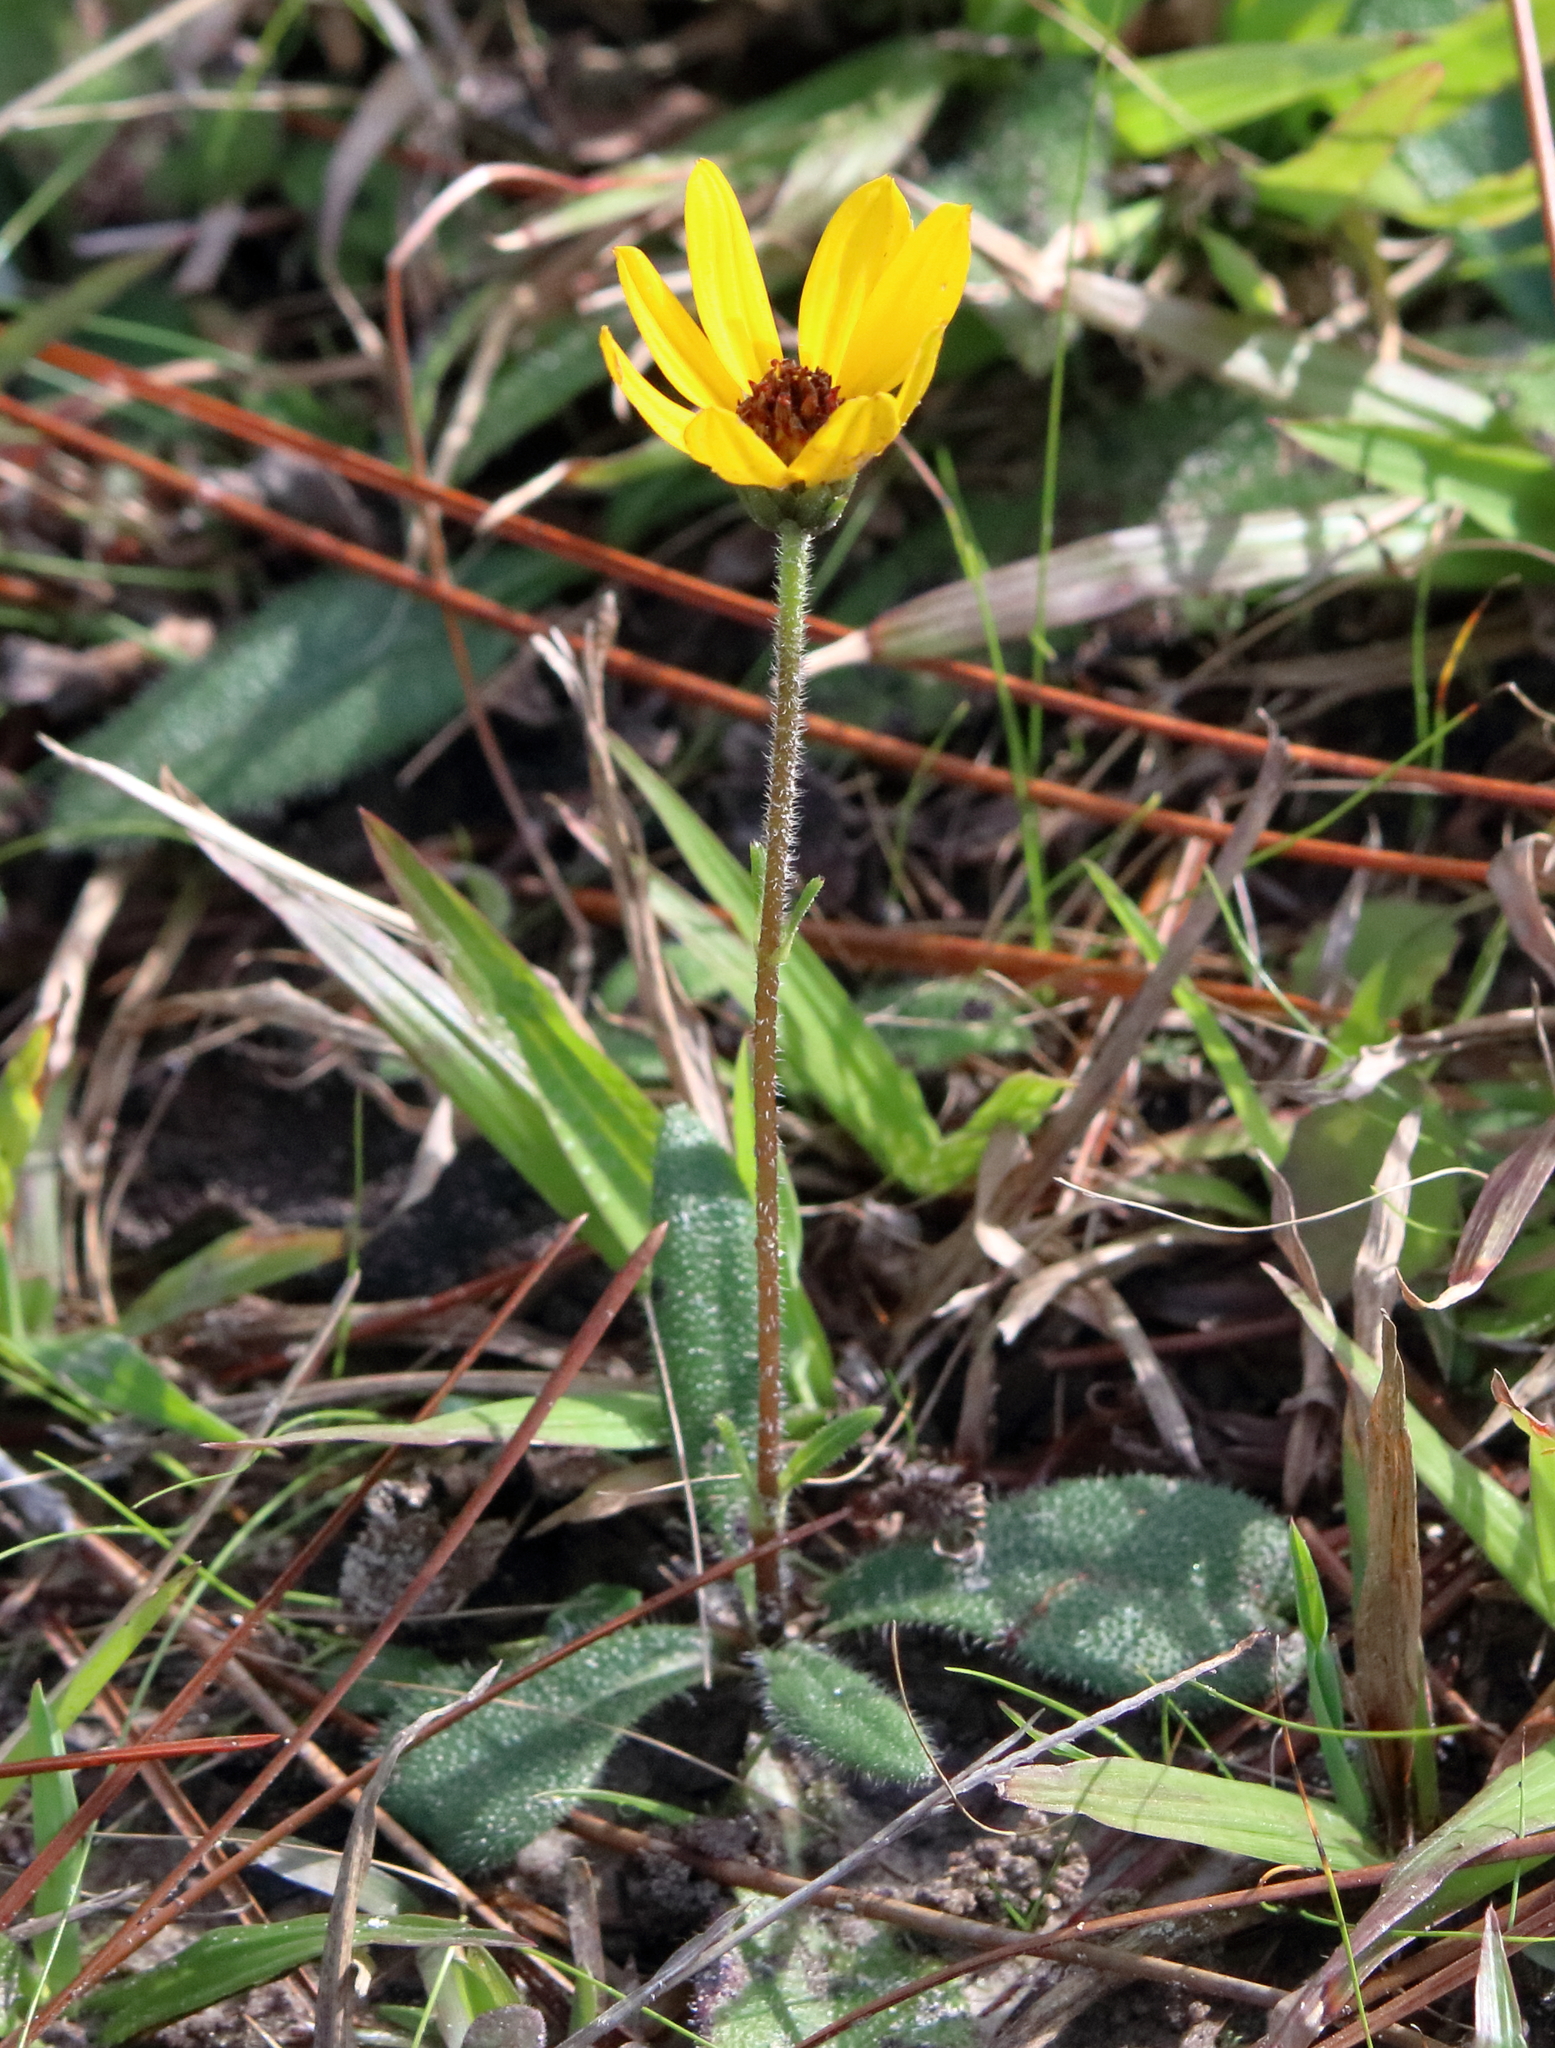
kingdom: Plantae
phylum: Tracheophyta
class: Magnoliopsida
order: Asterales
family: Asteraceae
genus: Helianthus
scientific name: Helianthus heterophyllus
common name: Wetland sunflower
